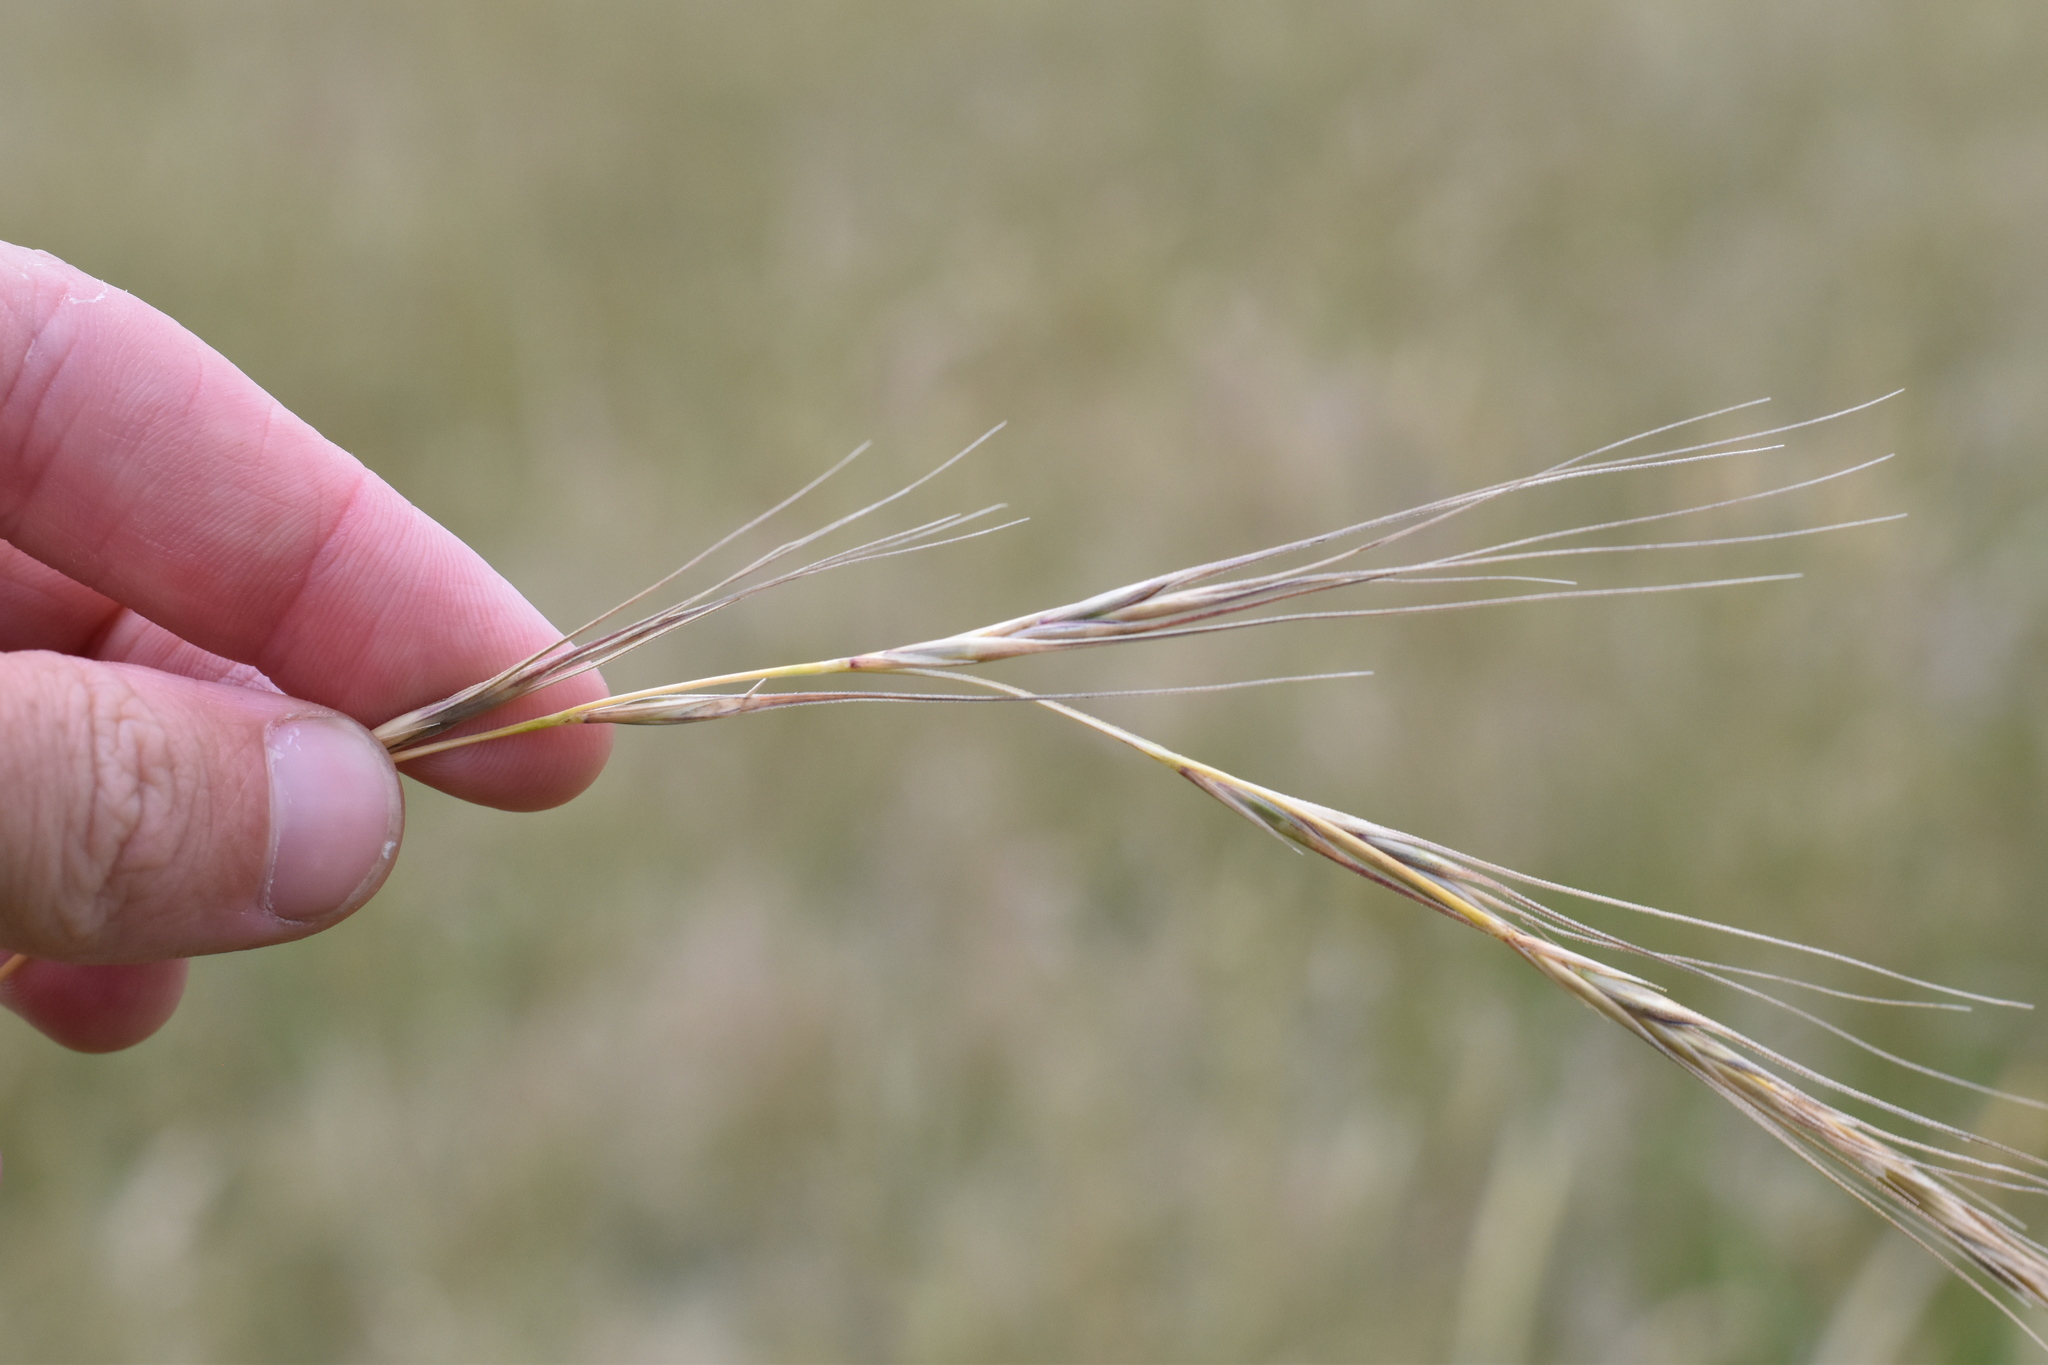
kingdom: Plantae
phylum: Tracheophyta
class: Liliopsida
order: Poales
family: Poaceae
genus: Anthosachne
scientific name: Anthosachne scabra
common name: Common wheatgrass
